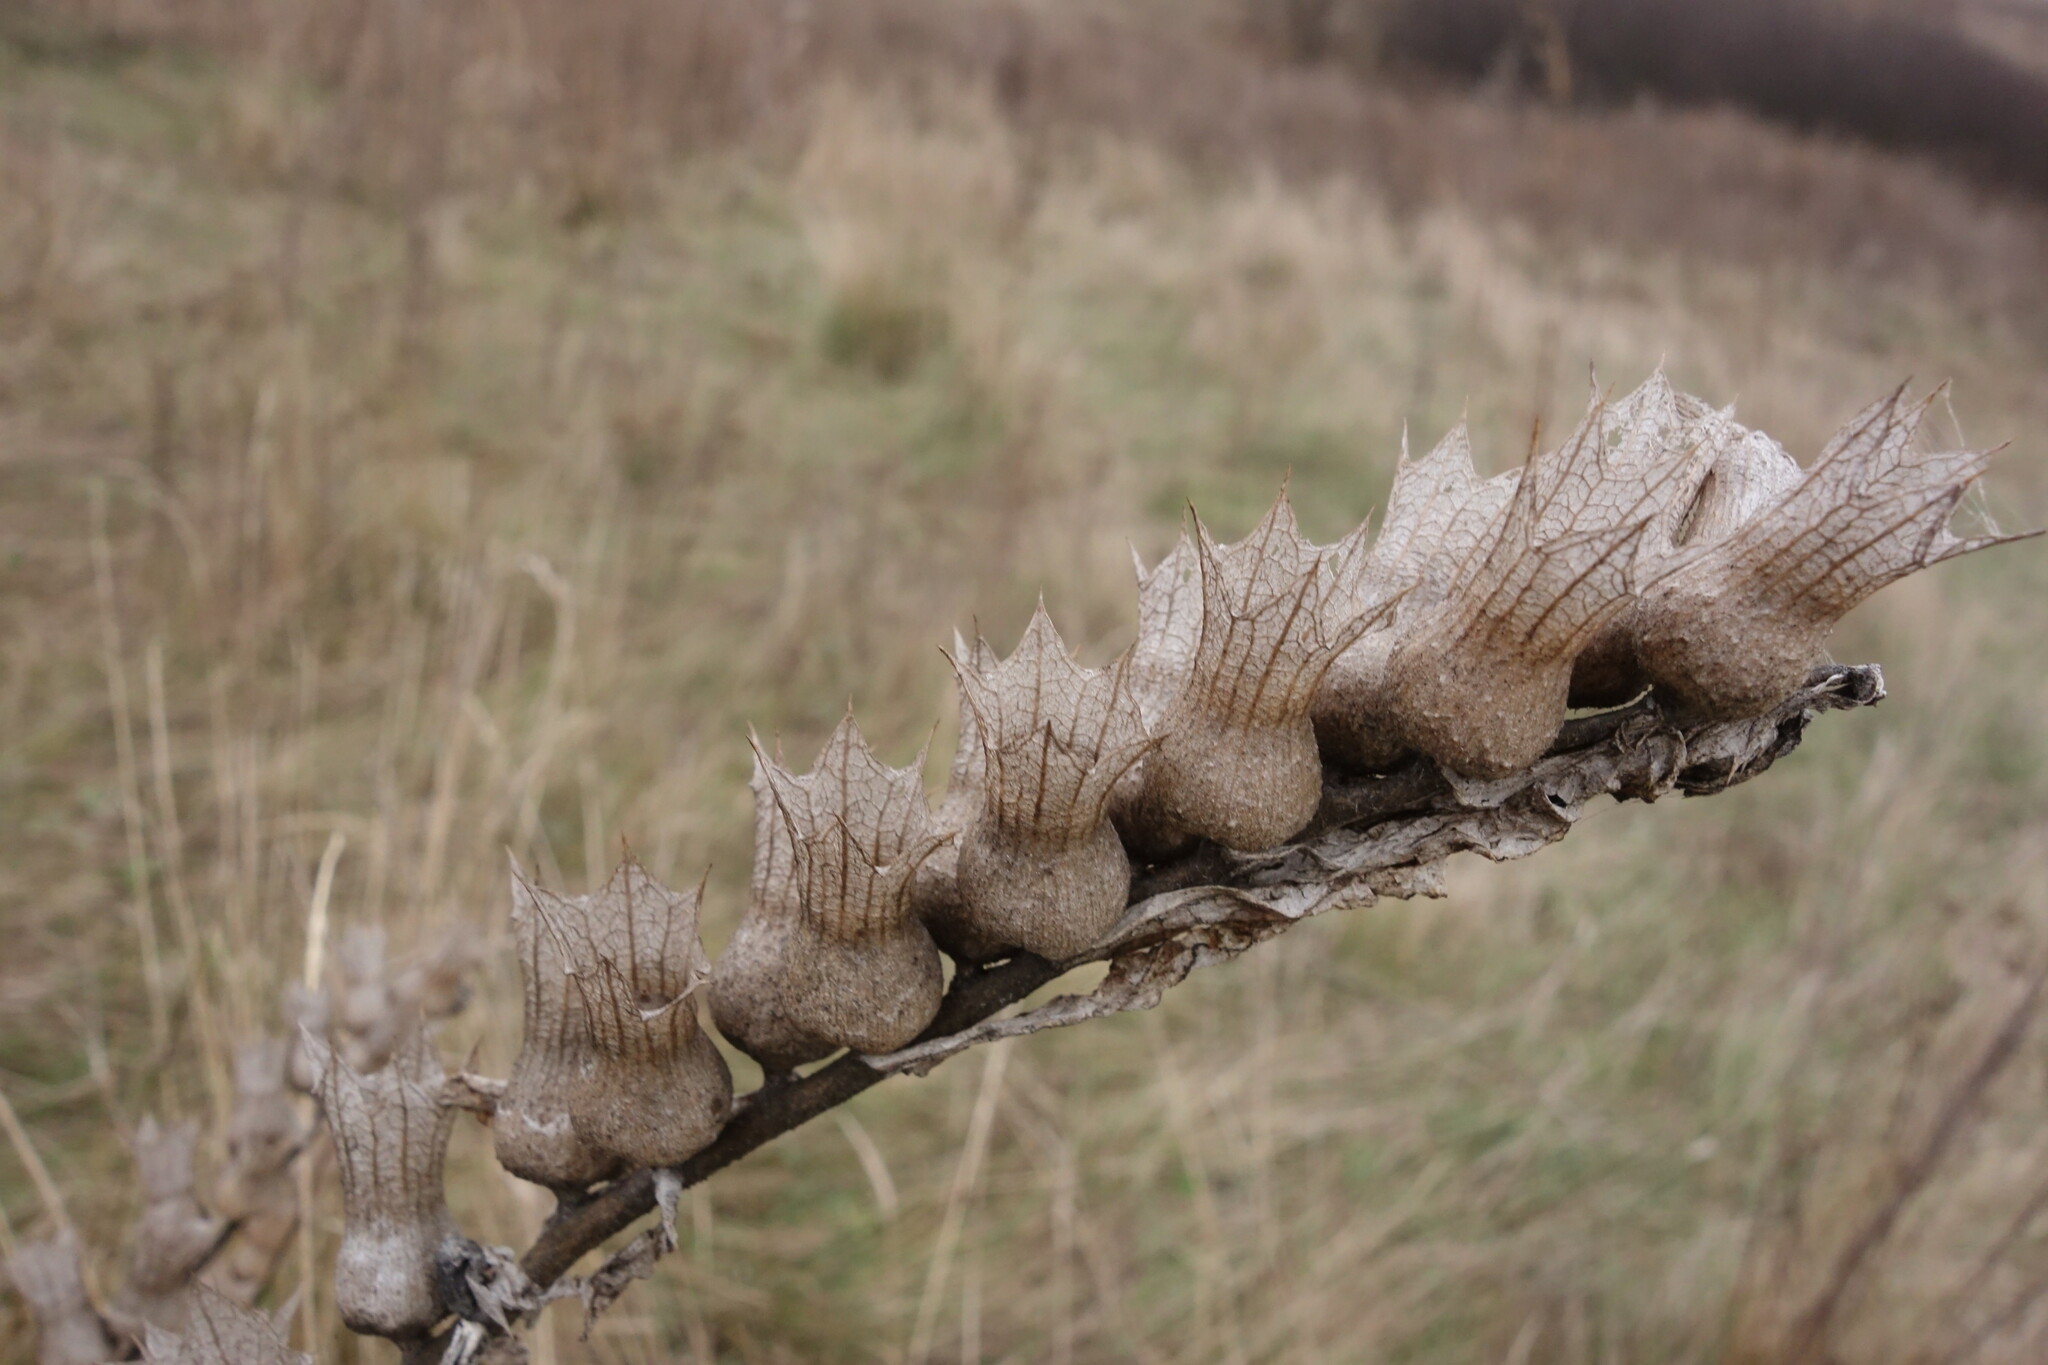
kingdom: Plantae
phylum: Tracheophyta
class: Magnoliopsida
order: Solanales
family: Solanaceae
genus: Hyoscyamus
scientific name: Hyoscyamus niger
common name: Henbane
